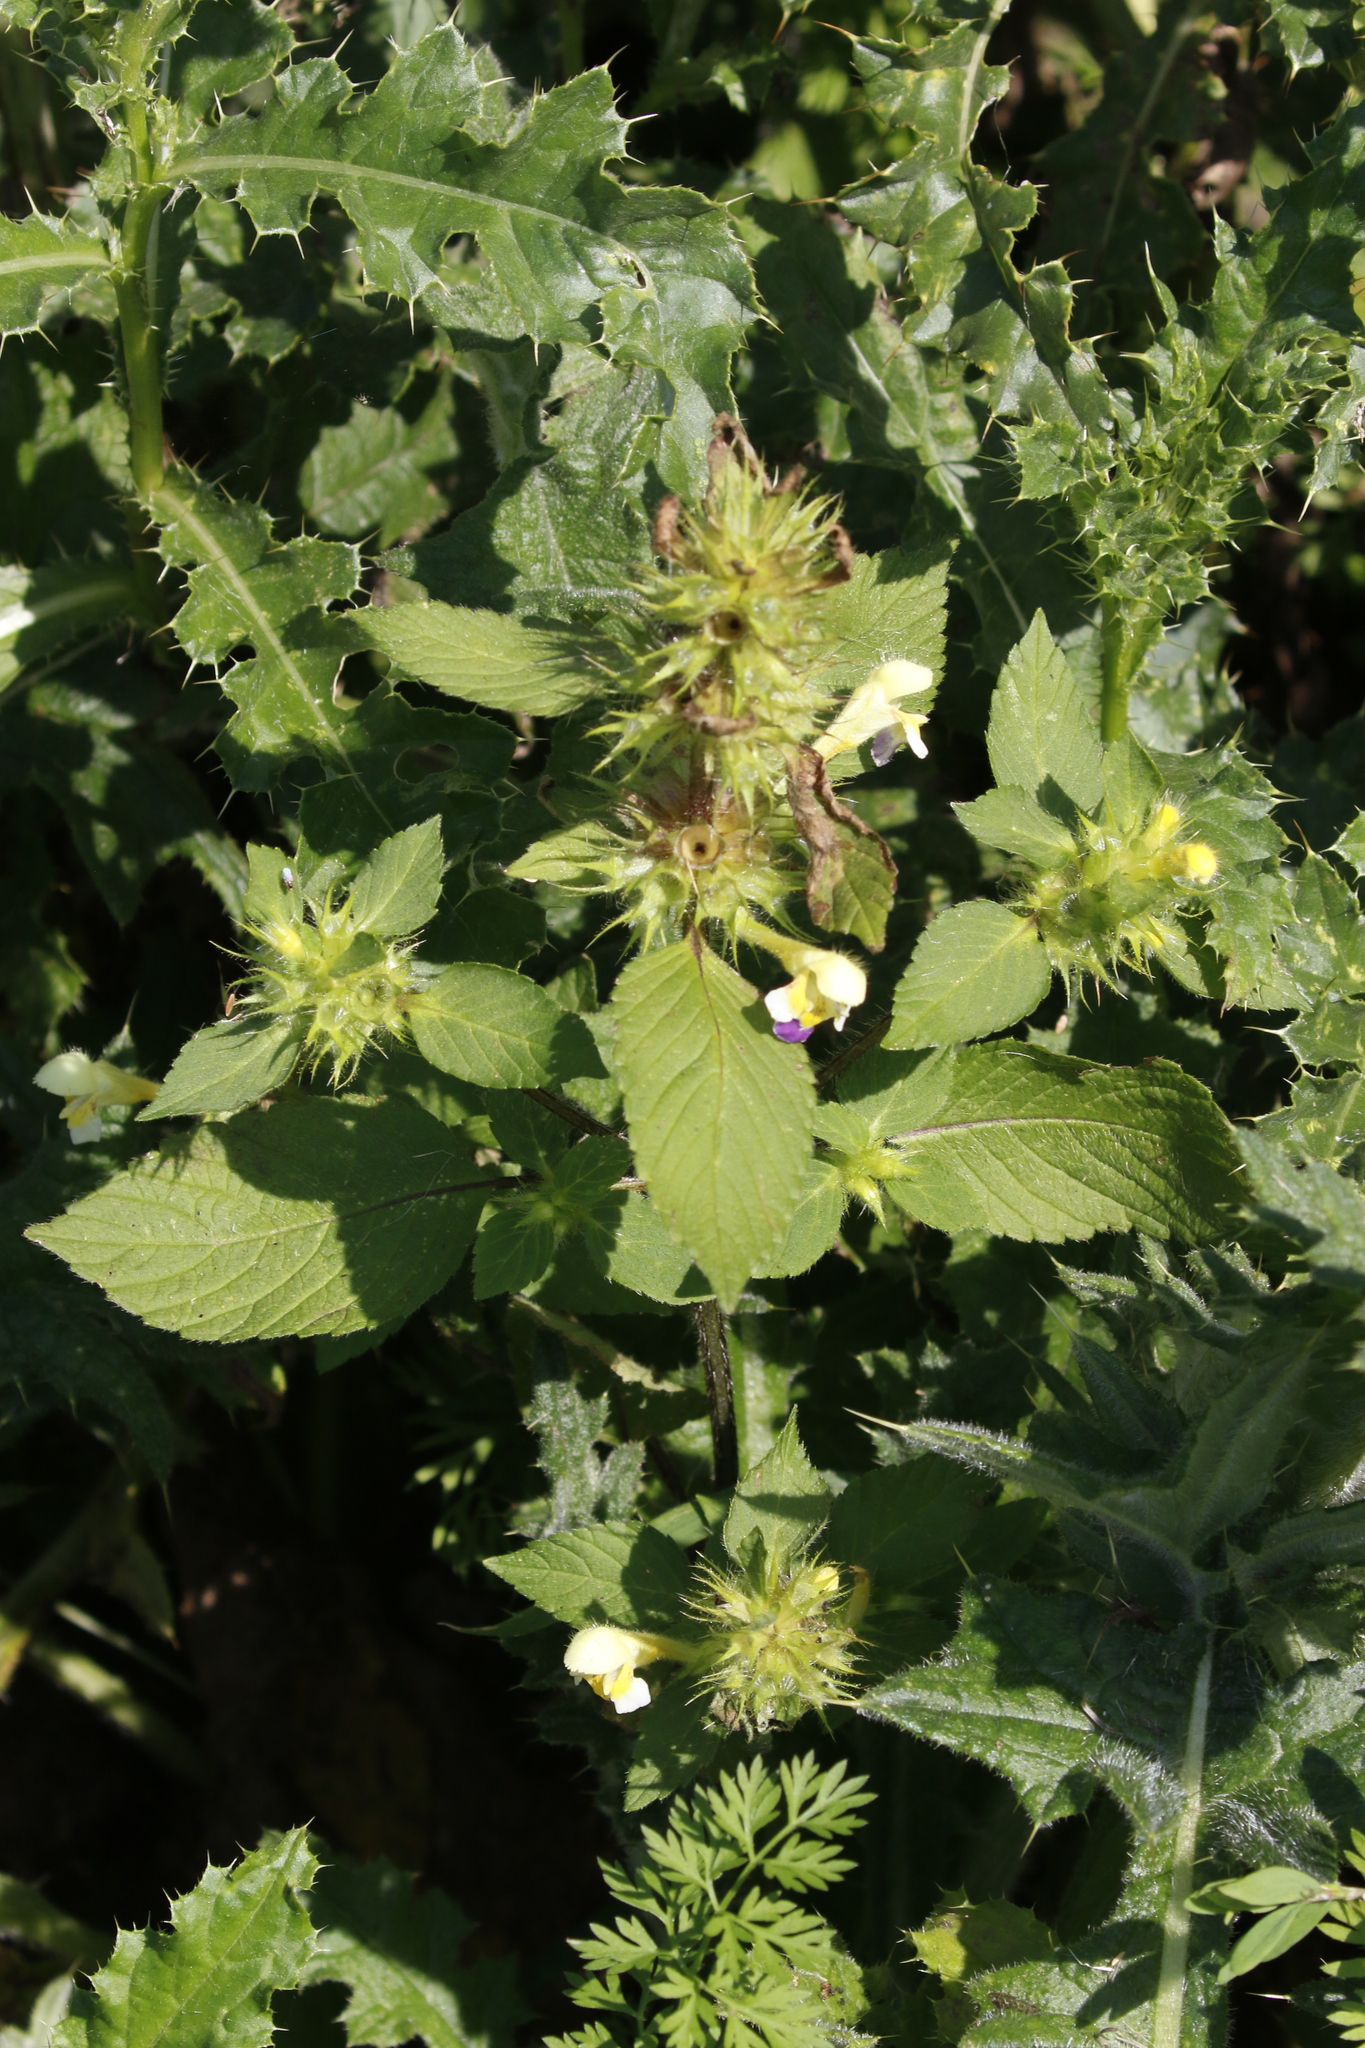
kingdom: Plantae
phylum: Tracheophyta
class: Magnoliopsida
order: Lamiales
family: Lamiaceae
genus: Galeopsis
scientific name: Galeopsis speciosa
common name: Large-flowered hemp-nettle
